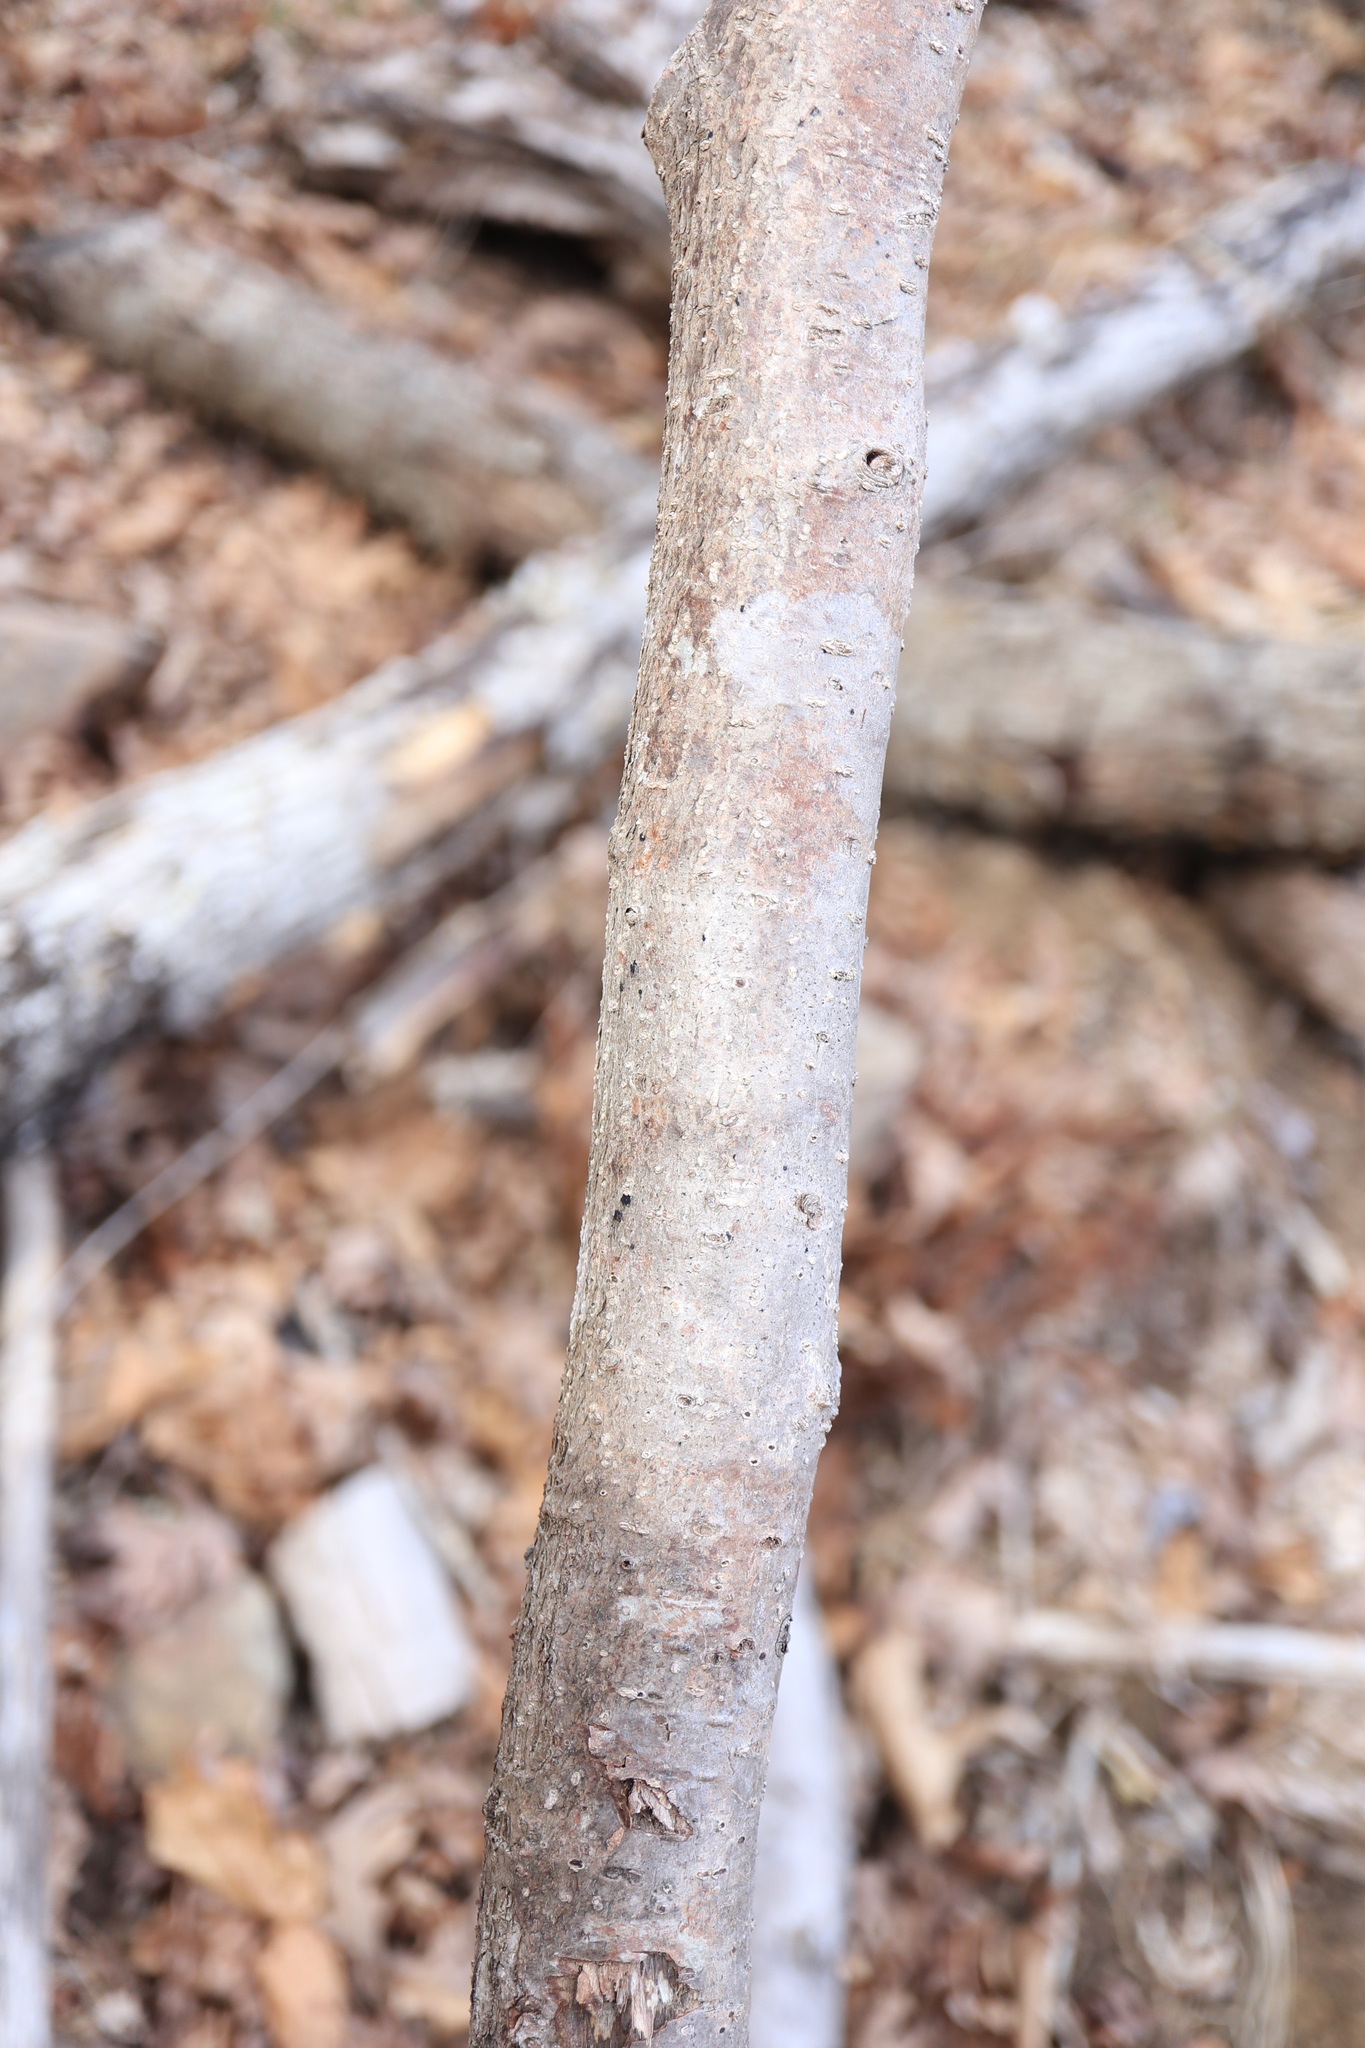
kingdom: Plantae
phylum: Tracheophyta
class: Magnoliopsida
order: Saxifragales
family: Hamamelidaceae
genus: Hamamelis
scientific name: Hamamelis virginiana
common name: Witch-hazel
